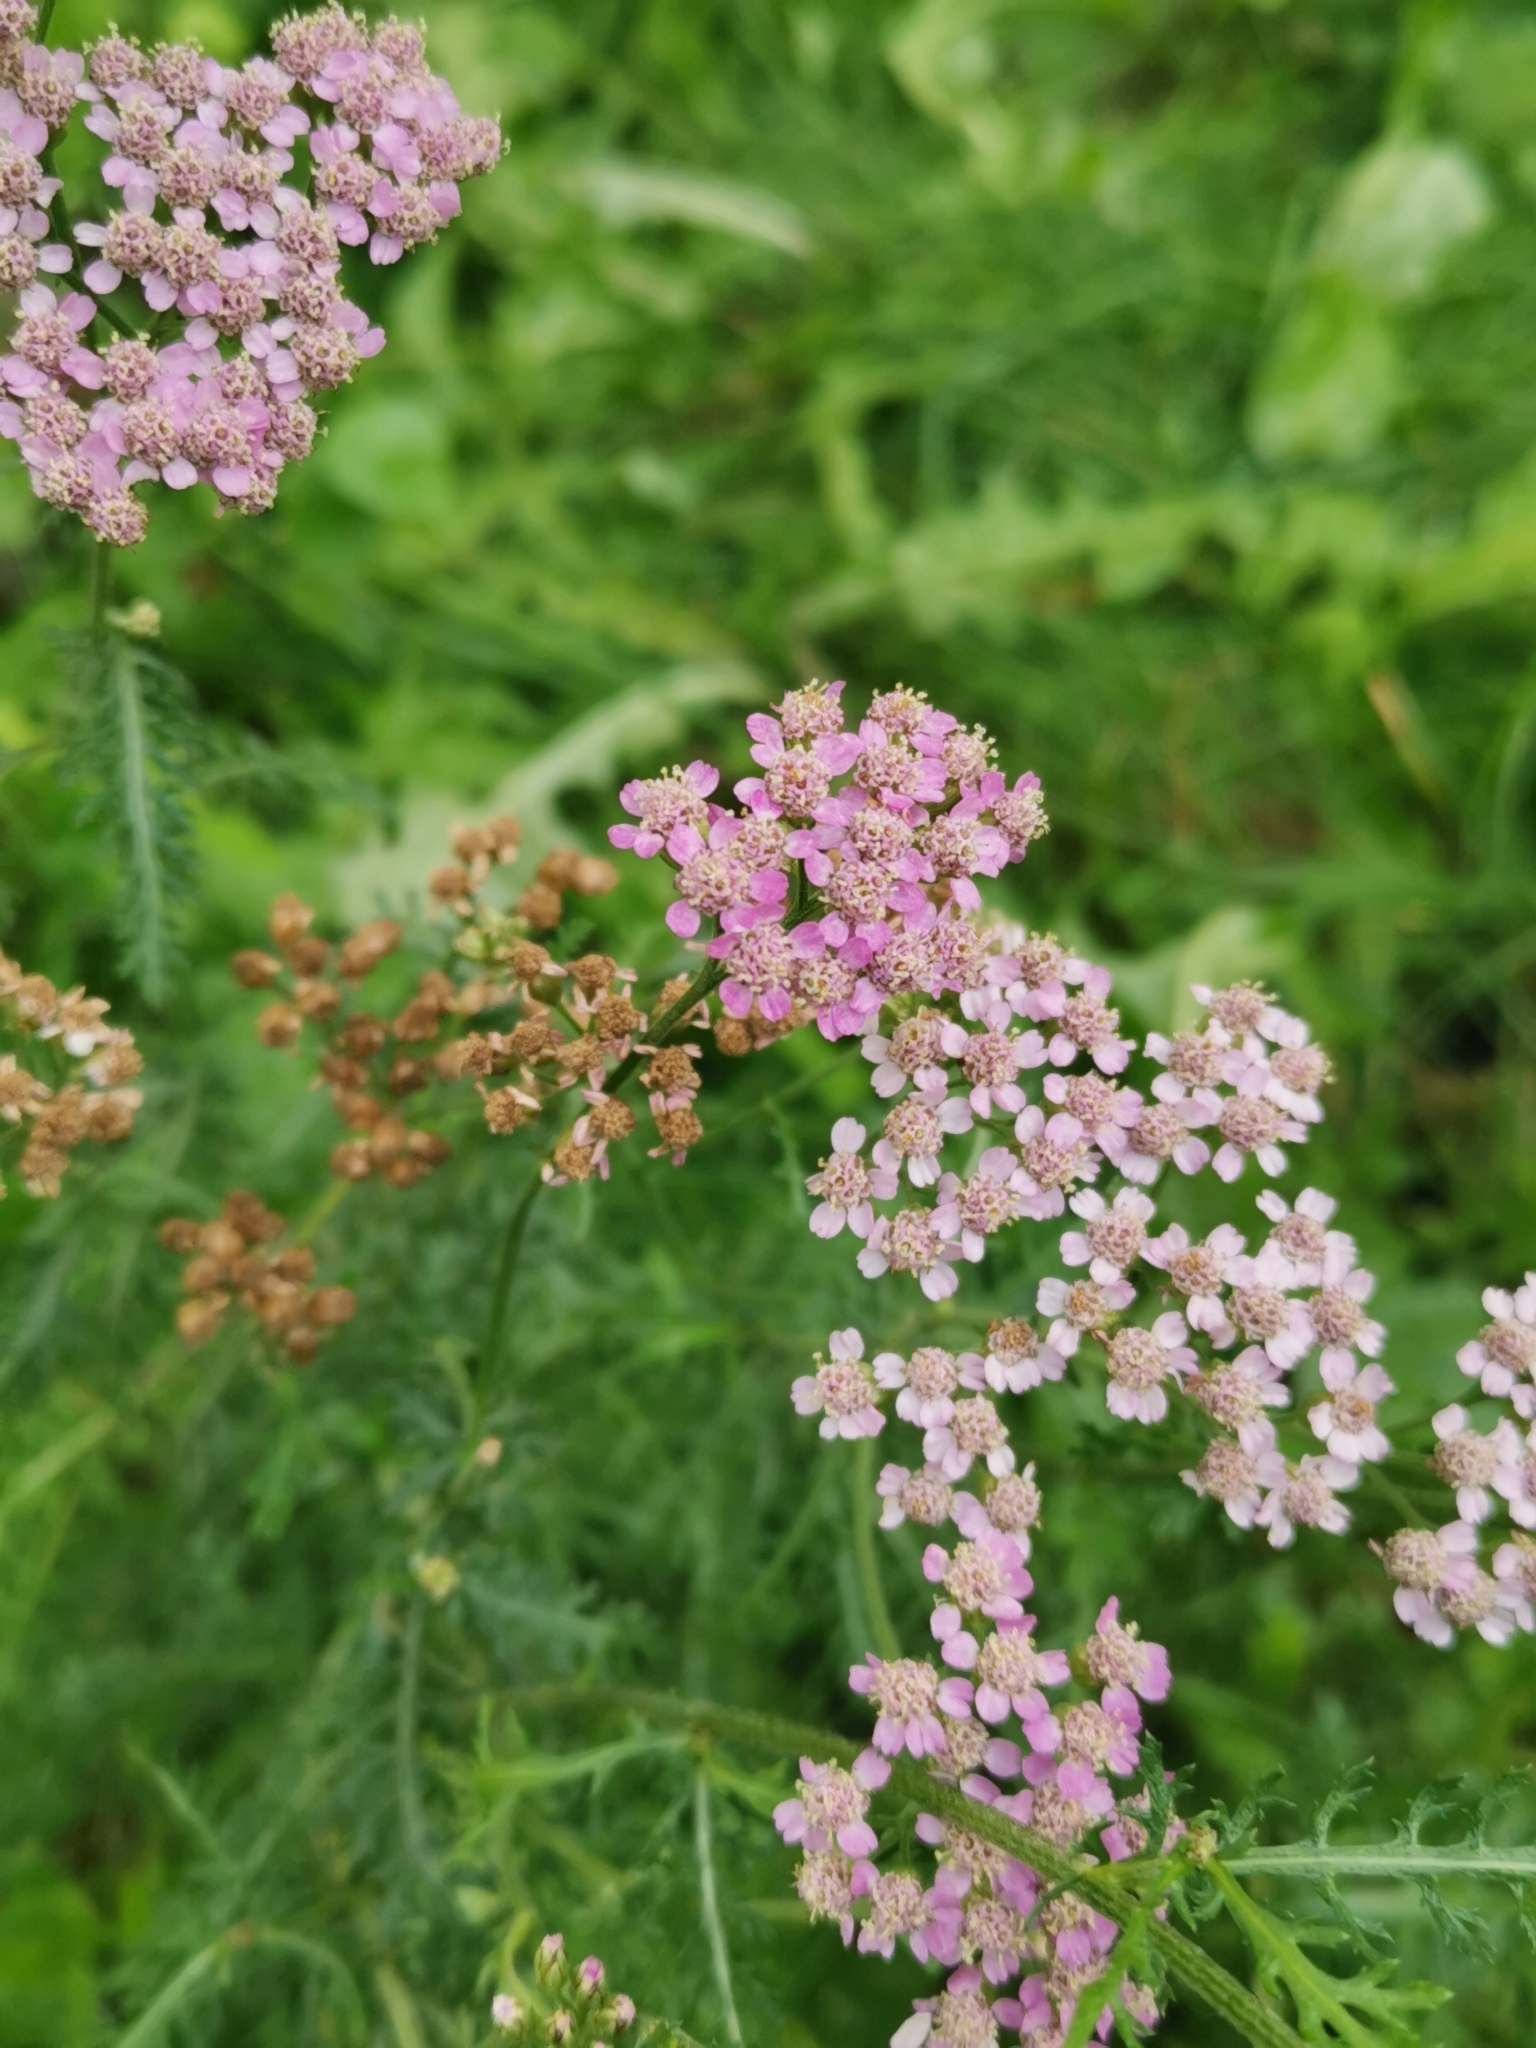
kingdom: Plantae
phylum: Tracheophyta
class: Magnoliopsida
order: Asterales
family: Asteraceae
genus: Achillea
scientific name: Achillea millefolium
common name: Yarrow
